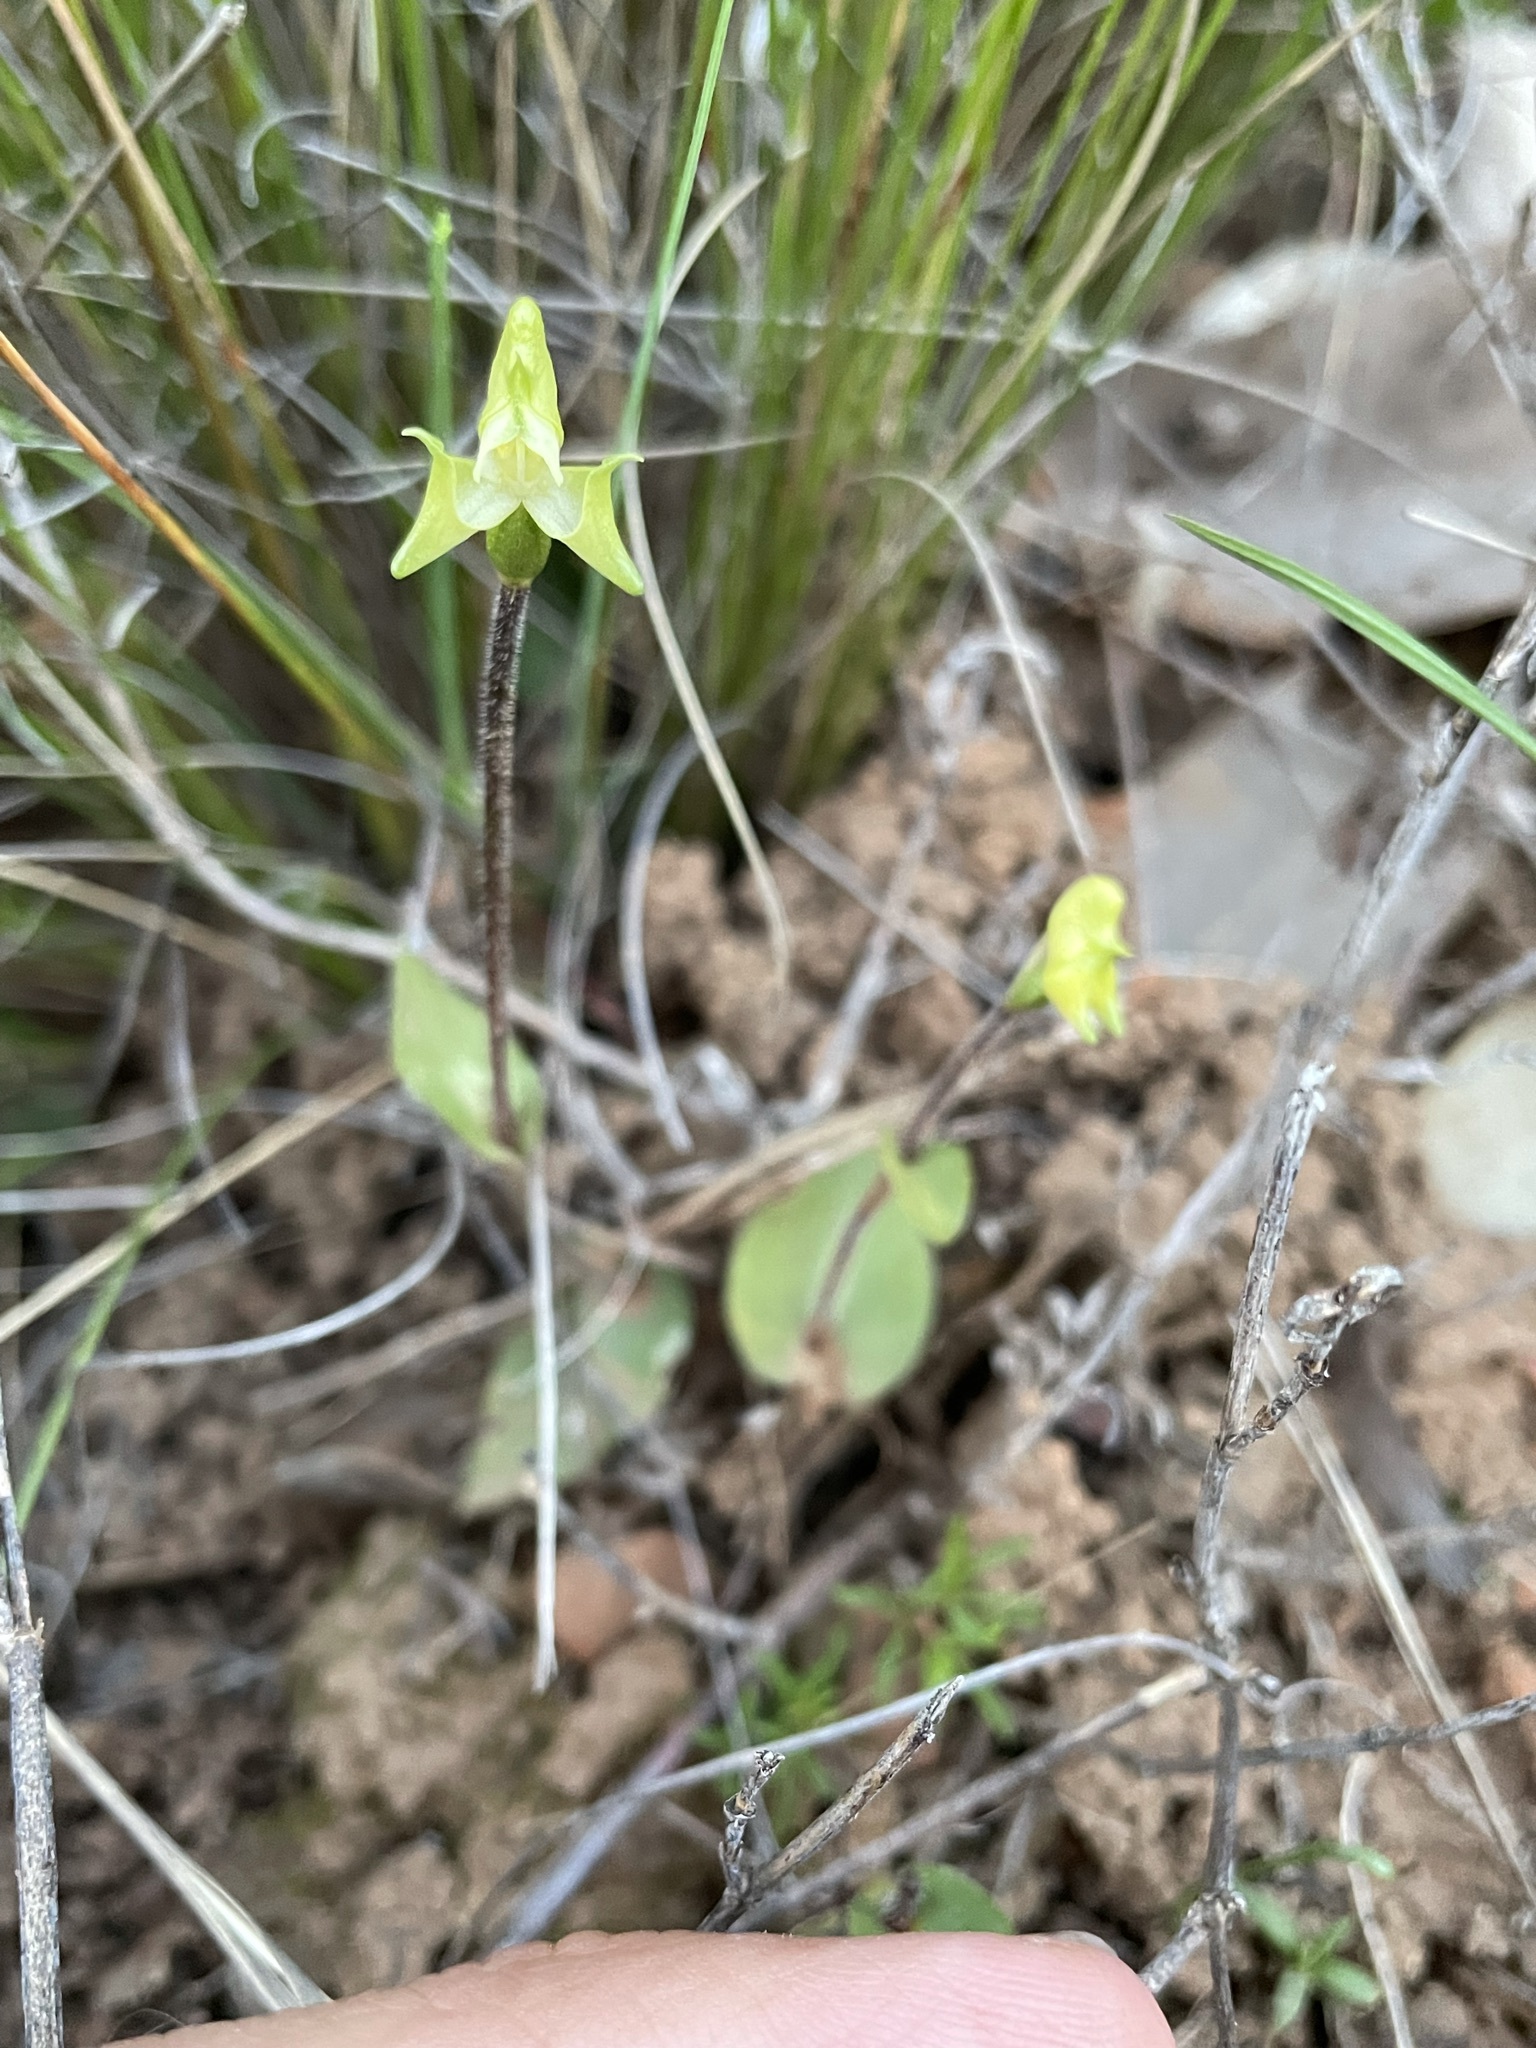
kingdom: Plantae
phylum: Tracheophyta
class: Liliopsida
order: Asparagales
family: Orchidaceae
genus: Disperis
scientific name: Disperis bolusiana
